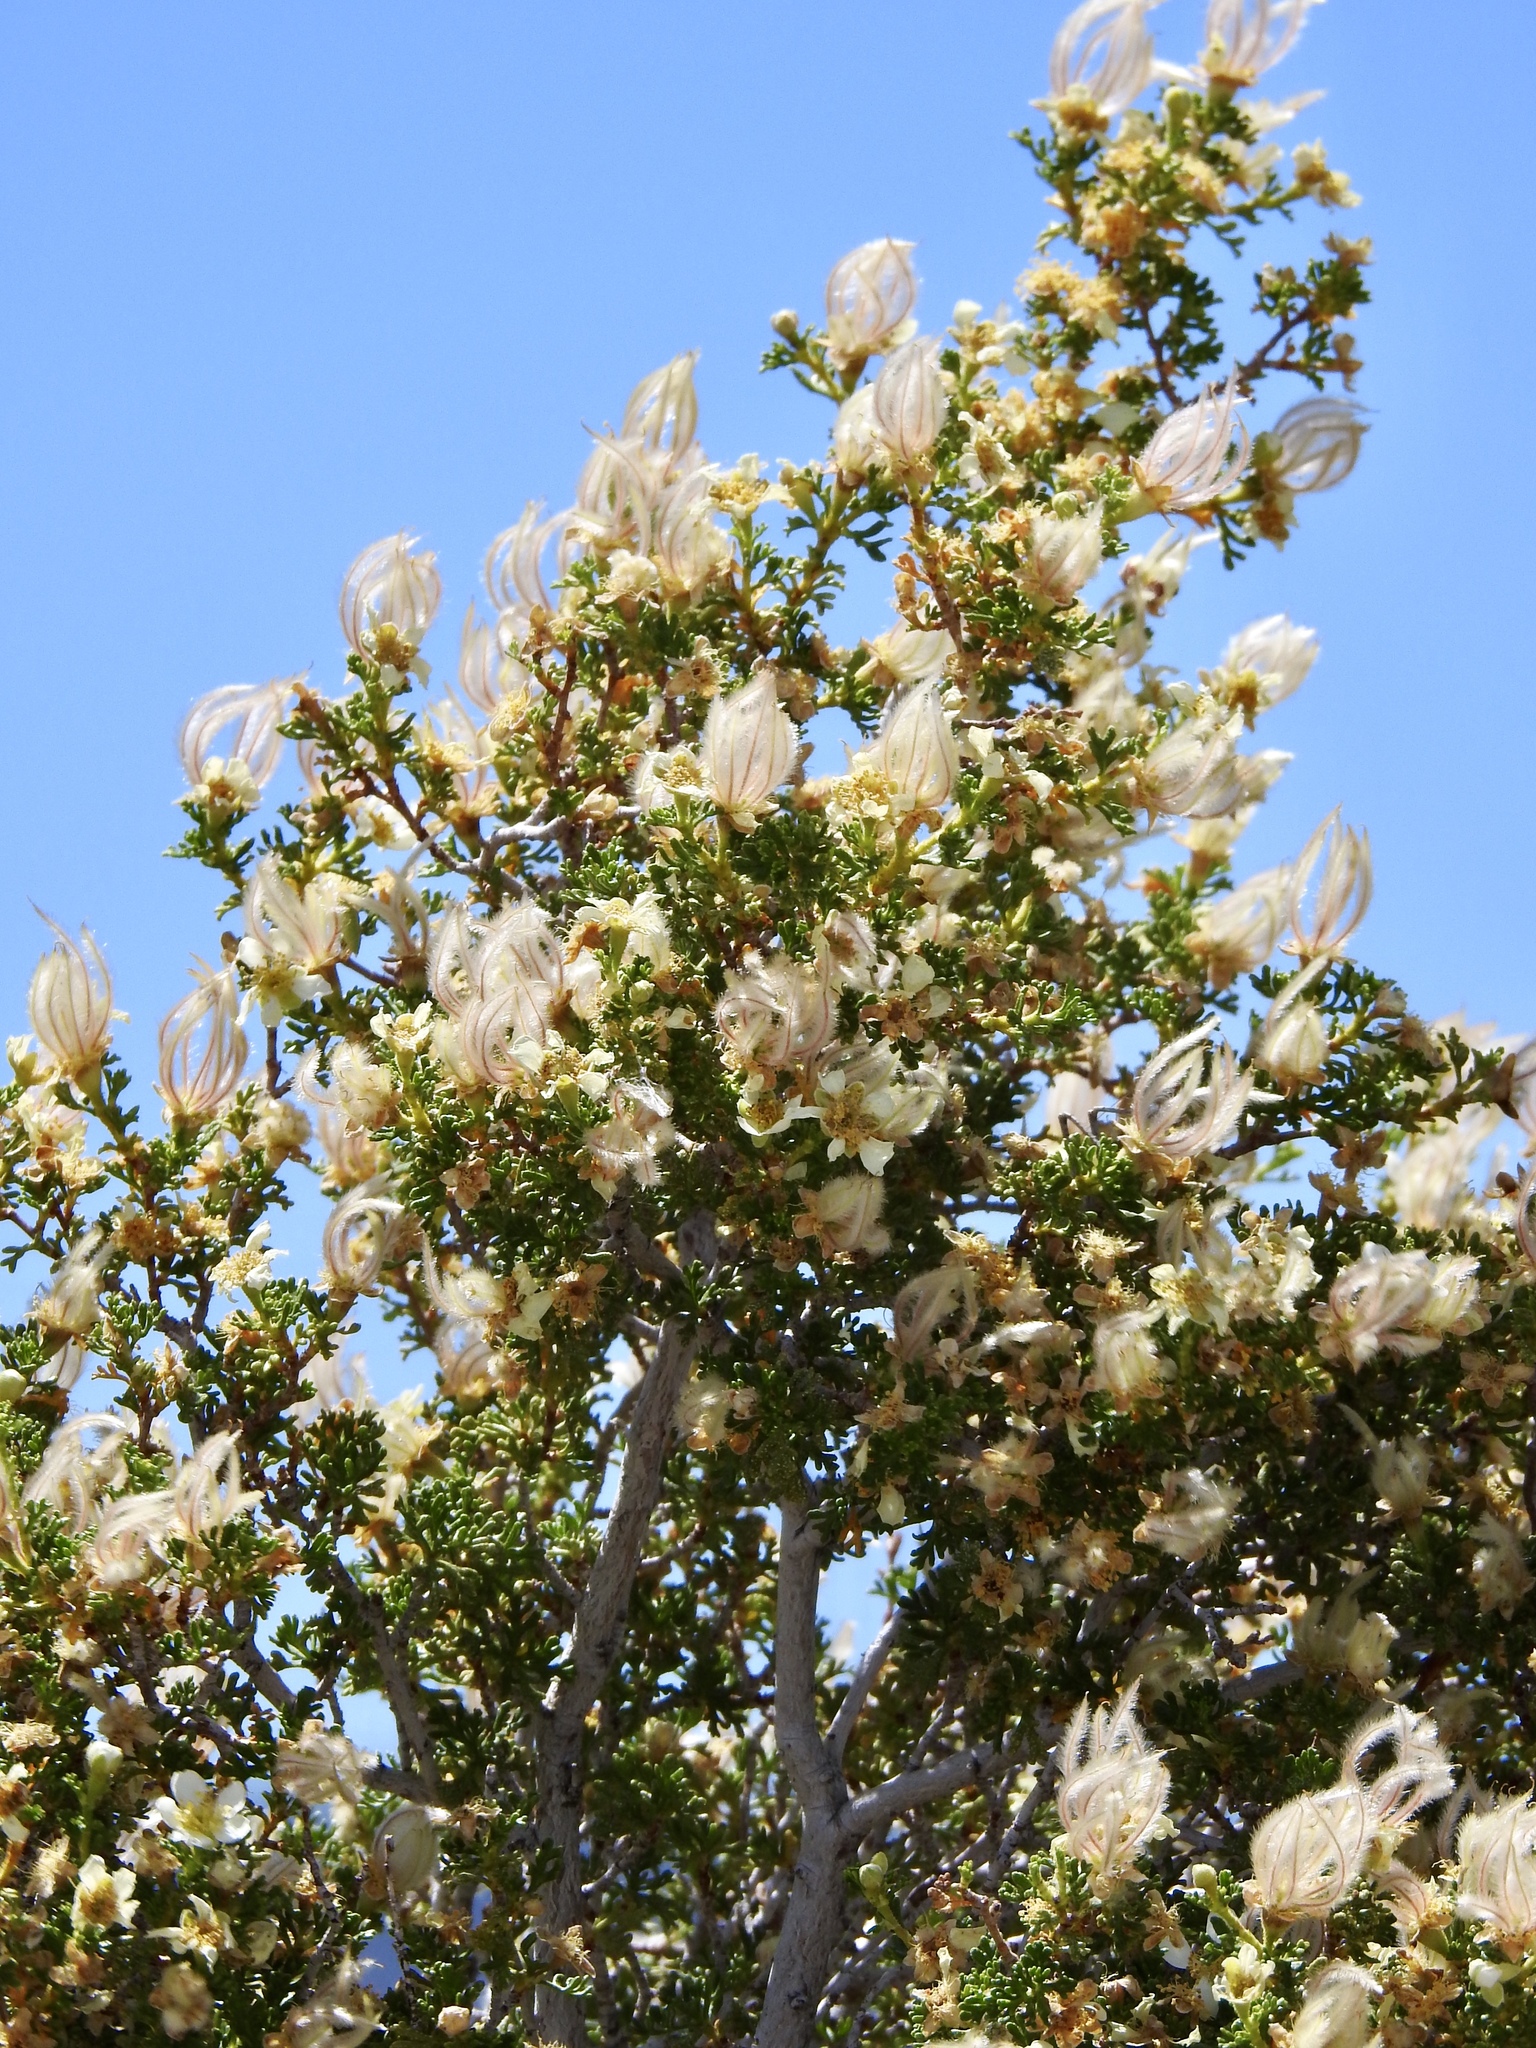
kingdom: Plantae
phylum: Tracheophyta
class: Magnoliopsida
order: Rosales
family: Rosaceae
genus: Purshia
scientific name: Purshia stansburiana
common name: Stansbury's cliffrose
